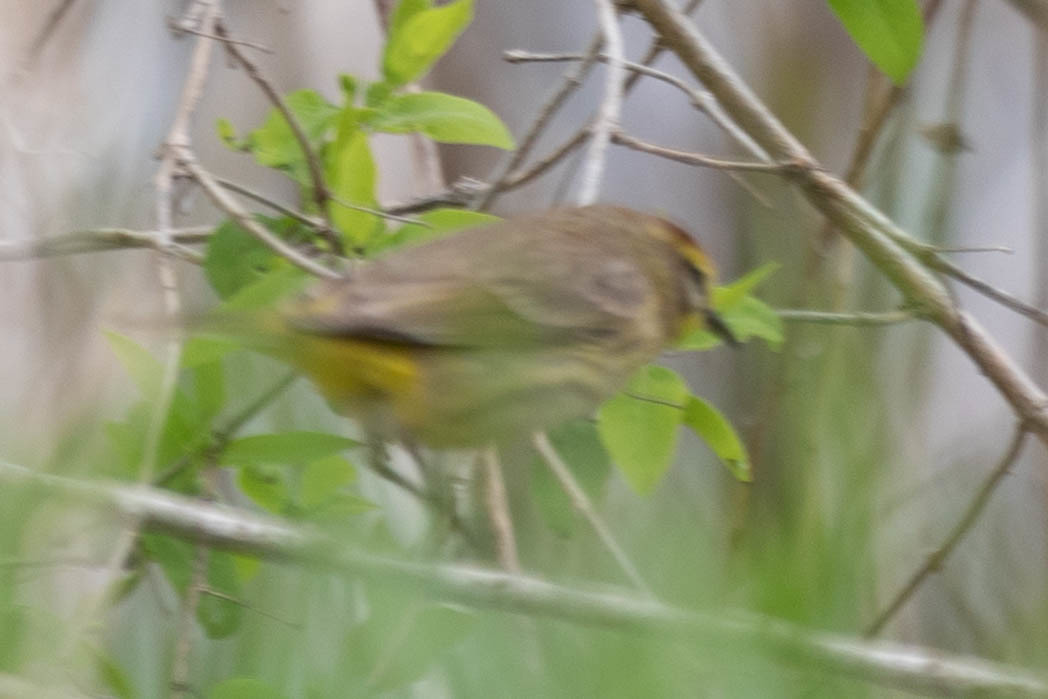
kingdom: Animalia
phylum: Chordata
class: Aves
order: Passeriformes
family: Parulidae
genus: Setophaga
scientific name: Setophaga palmarum
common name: Palm warbler
